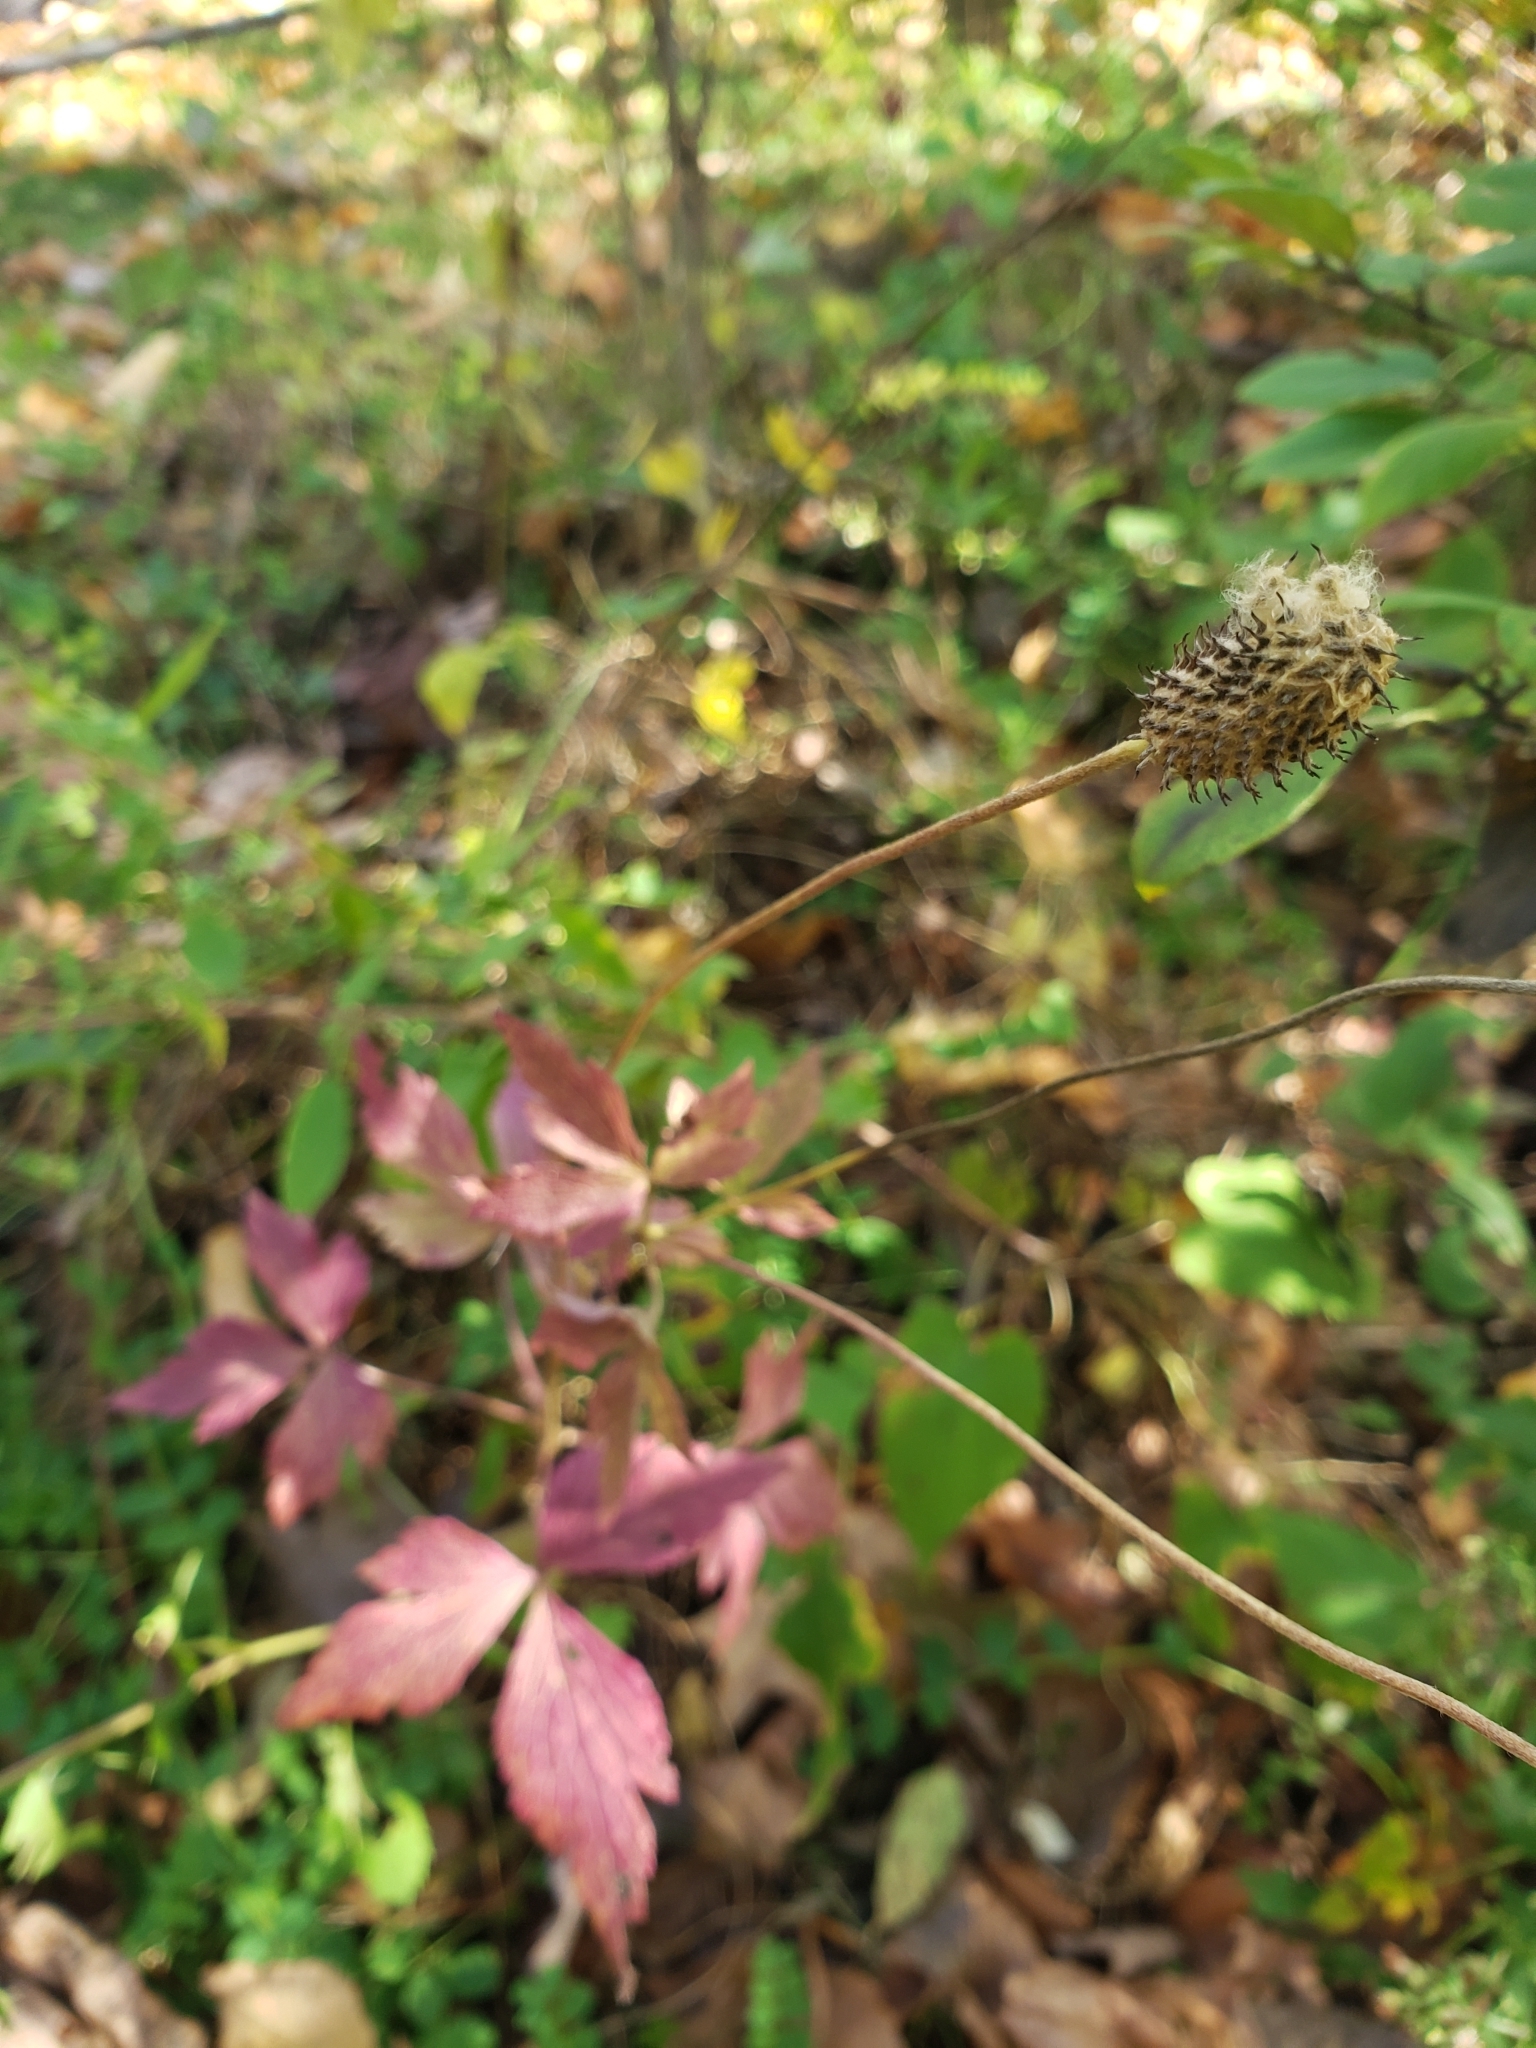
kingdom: Plantae
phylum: Tracheophyta
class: Magnoliopsida
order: Ranunculales
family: Ranunculaceae
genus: Anemone
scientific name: Anemone virginiana
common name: Tall anemone
